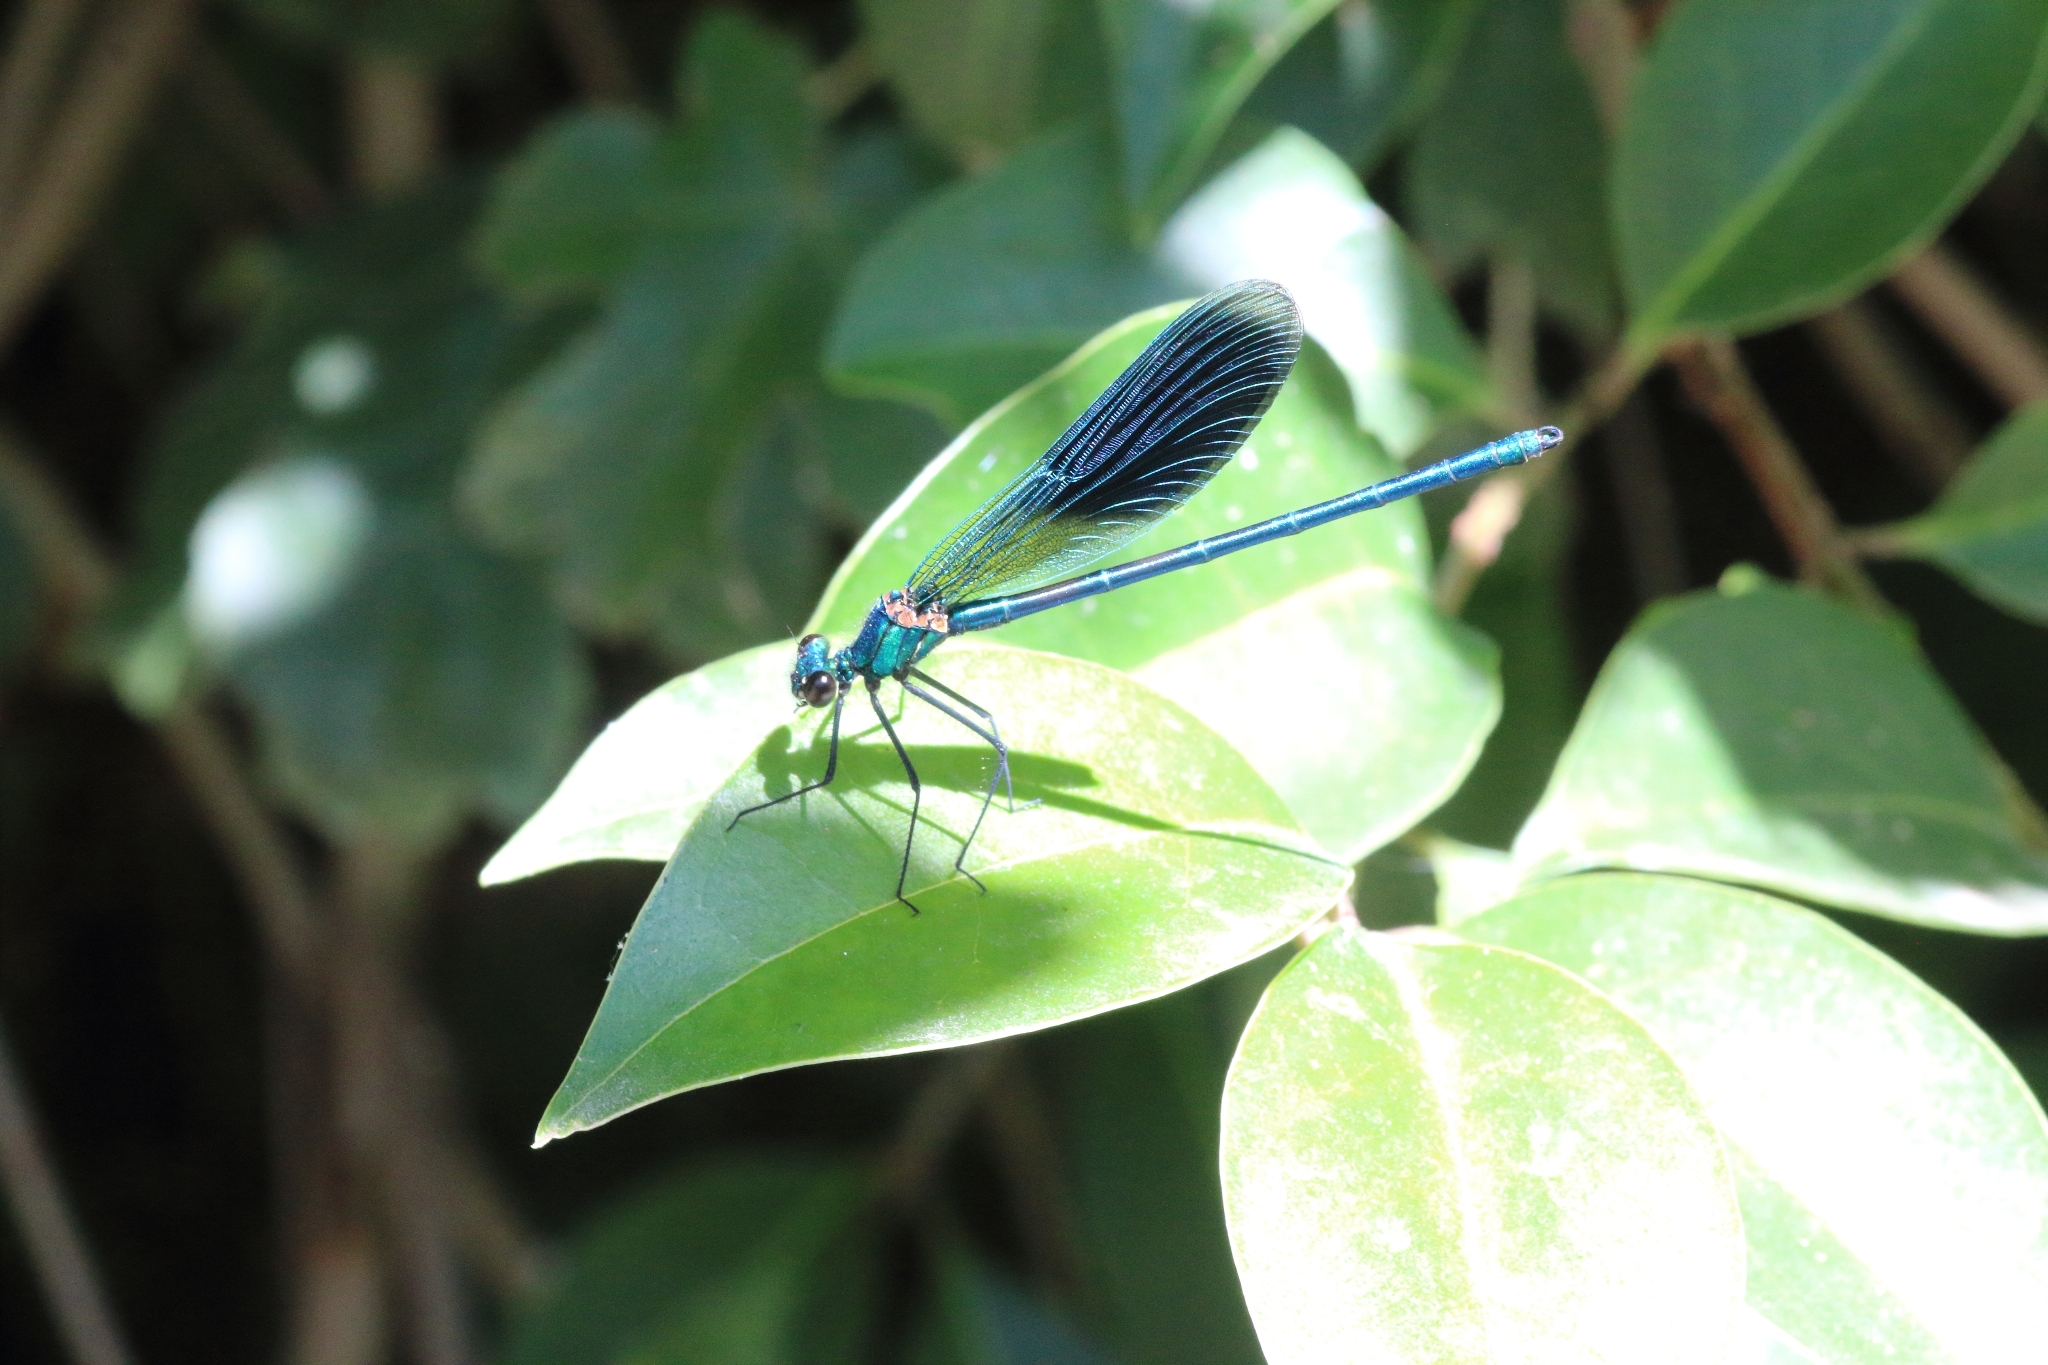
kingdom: Animalia
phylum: Arthropoda
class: Insecta
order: Odonata
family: Calopterygidae
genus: Calopteryx
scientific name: Calopteryx splendens
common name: Banded demoiselle
